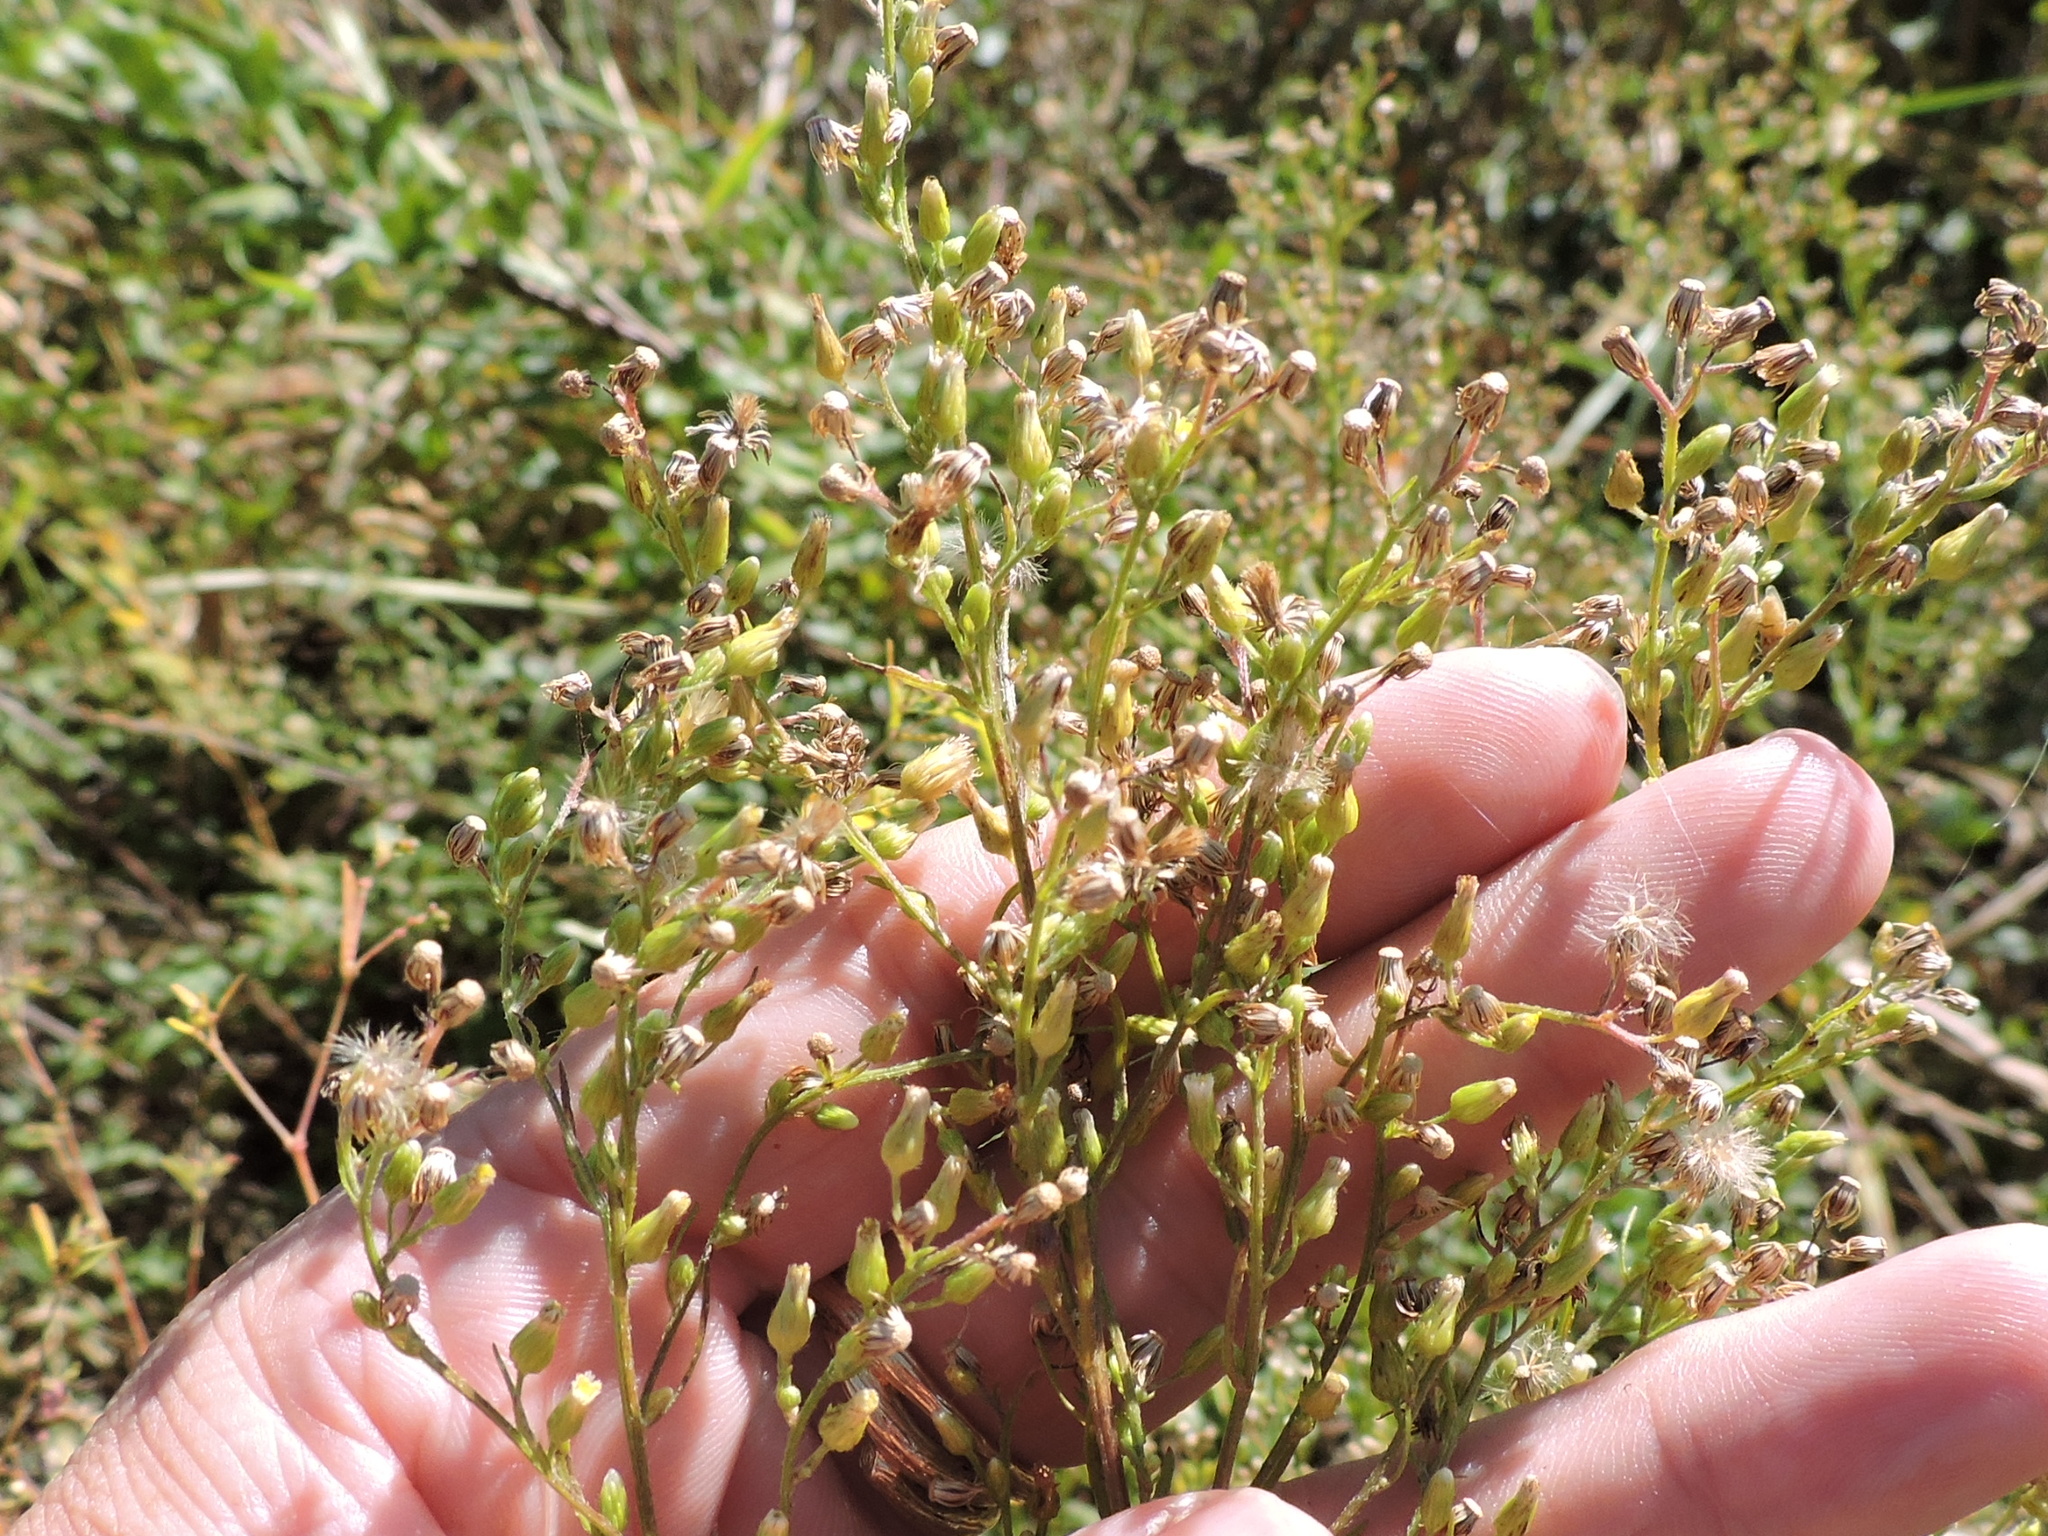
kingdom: Plantae
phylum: Tracheophyta
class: Magnoliopsida
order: Asterales
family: Asteraceae
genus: Erigeron
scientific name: Erigeron canadensis
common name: Canadian fleabane
